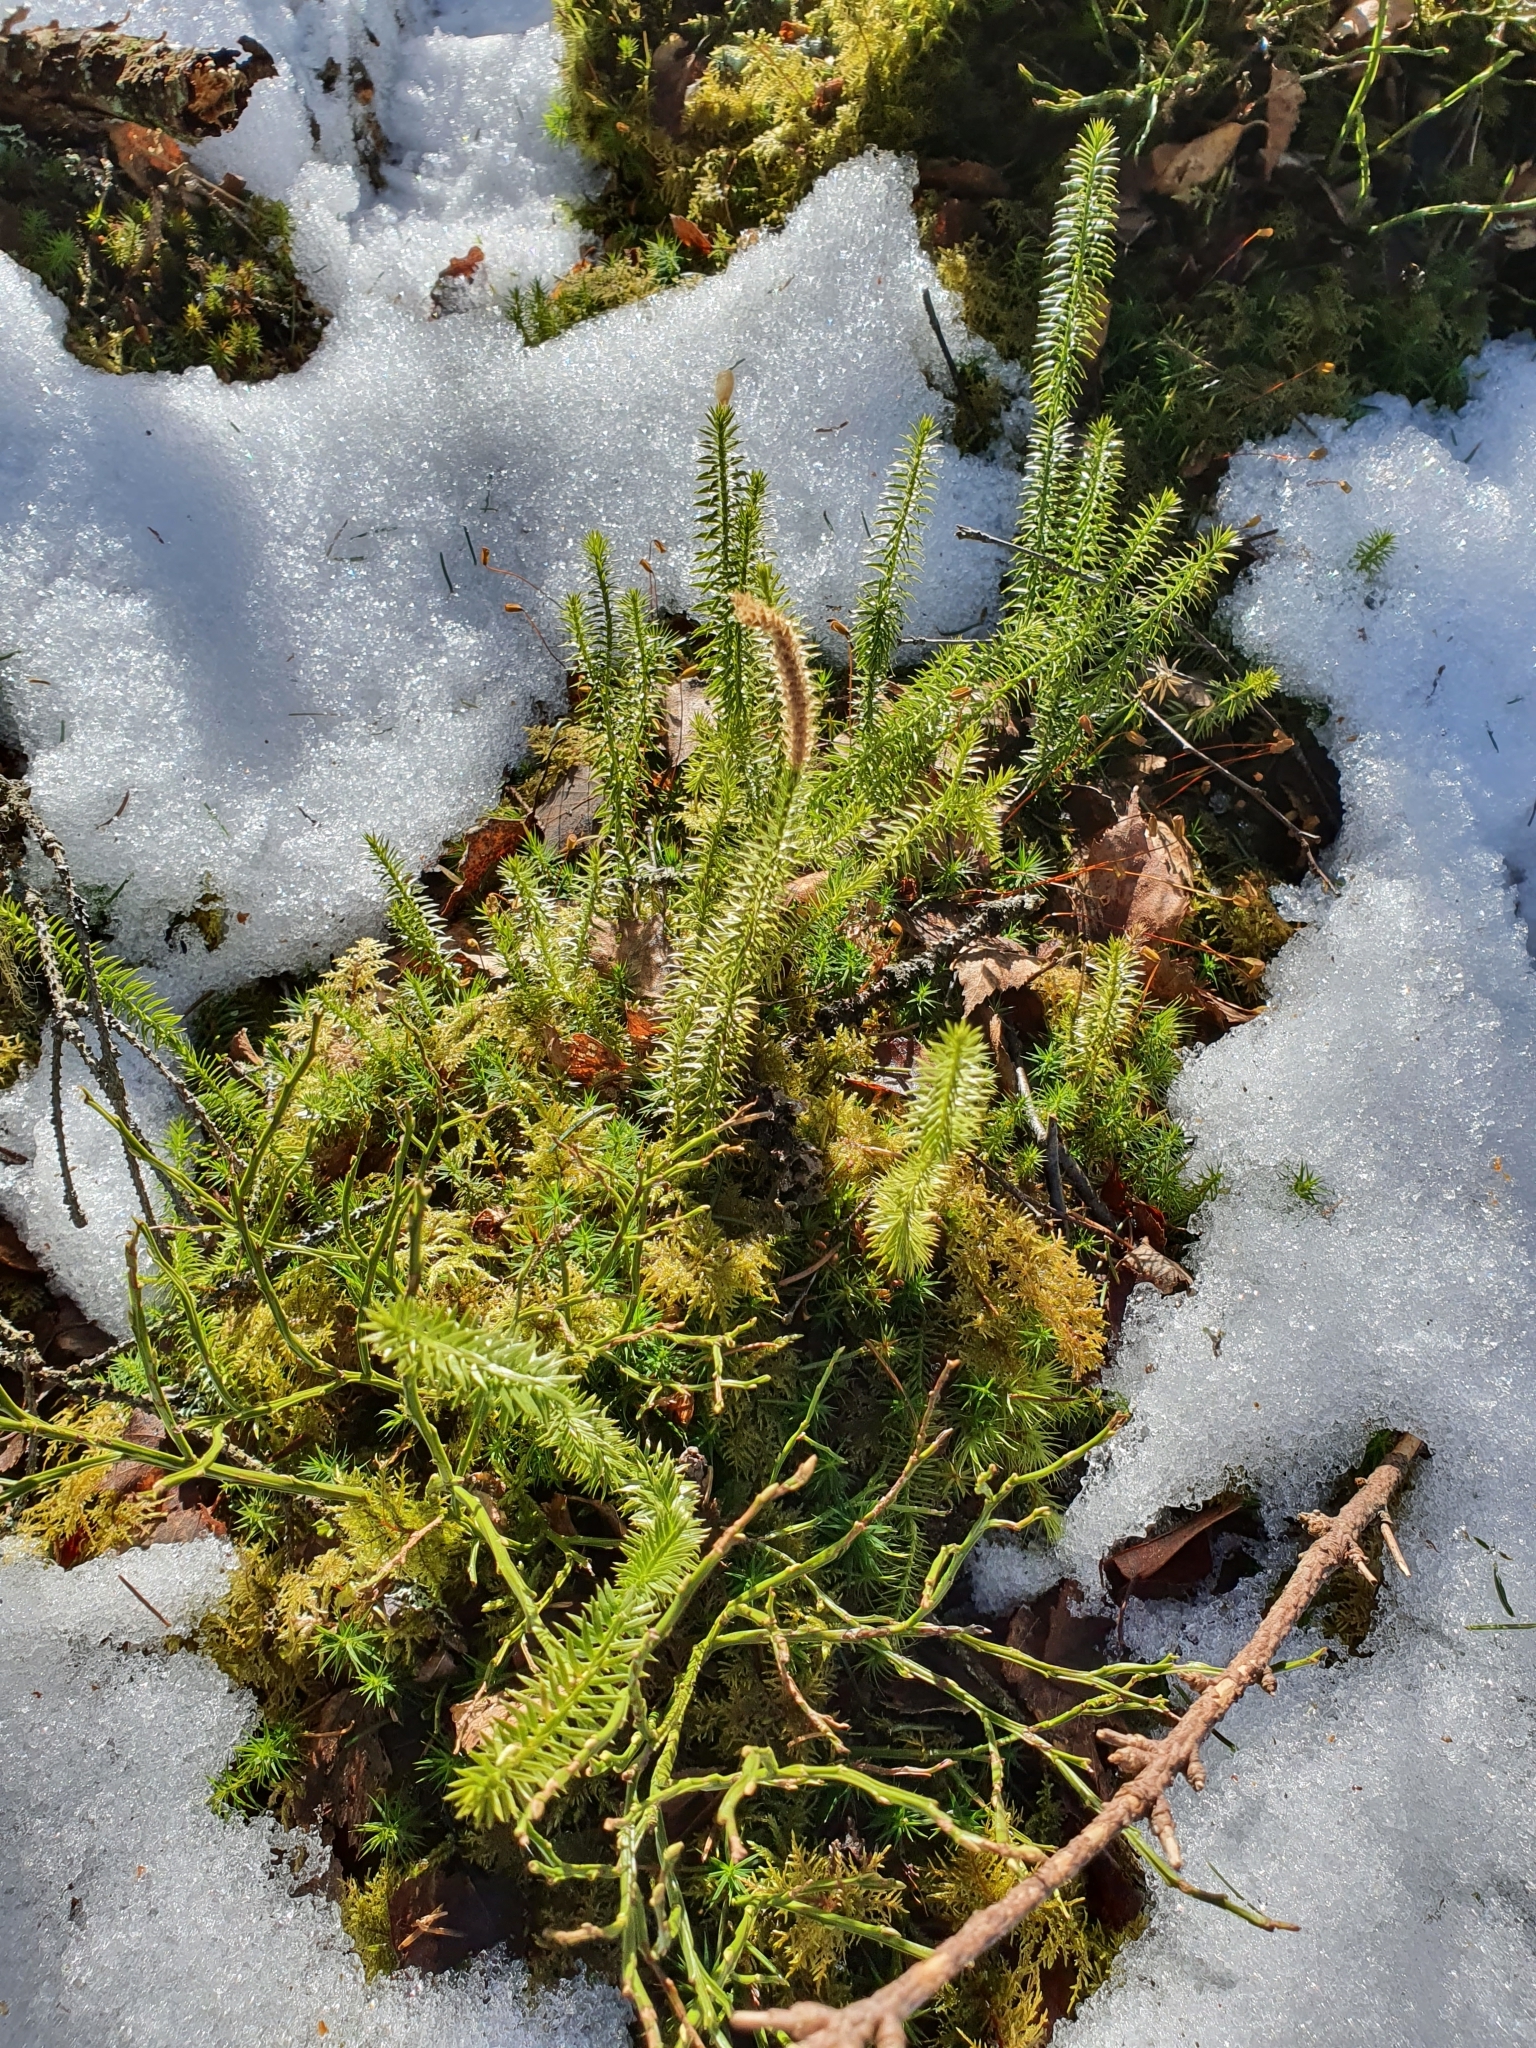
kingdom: Plantae
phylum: Tracheophyta
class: Lycopodiopsida
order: Lycopodiales
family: Lycopodiaceae
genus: Spinulum
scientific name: Spinulum annotinum
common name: Interrupted club-moss
